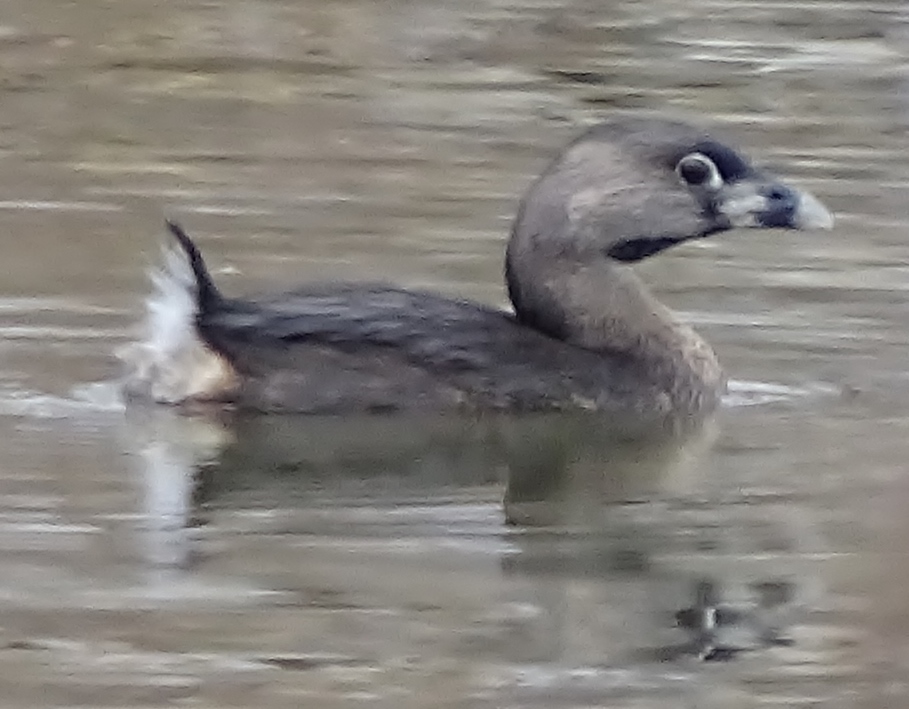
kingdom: Animalia
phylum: Chordata
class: Aves
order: Podicipediformes
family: Podicipedidae
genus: Podilymbus
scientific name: Podilymbus podiceps
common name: Pied-billed grebe
